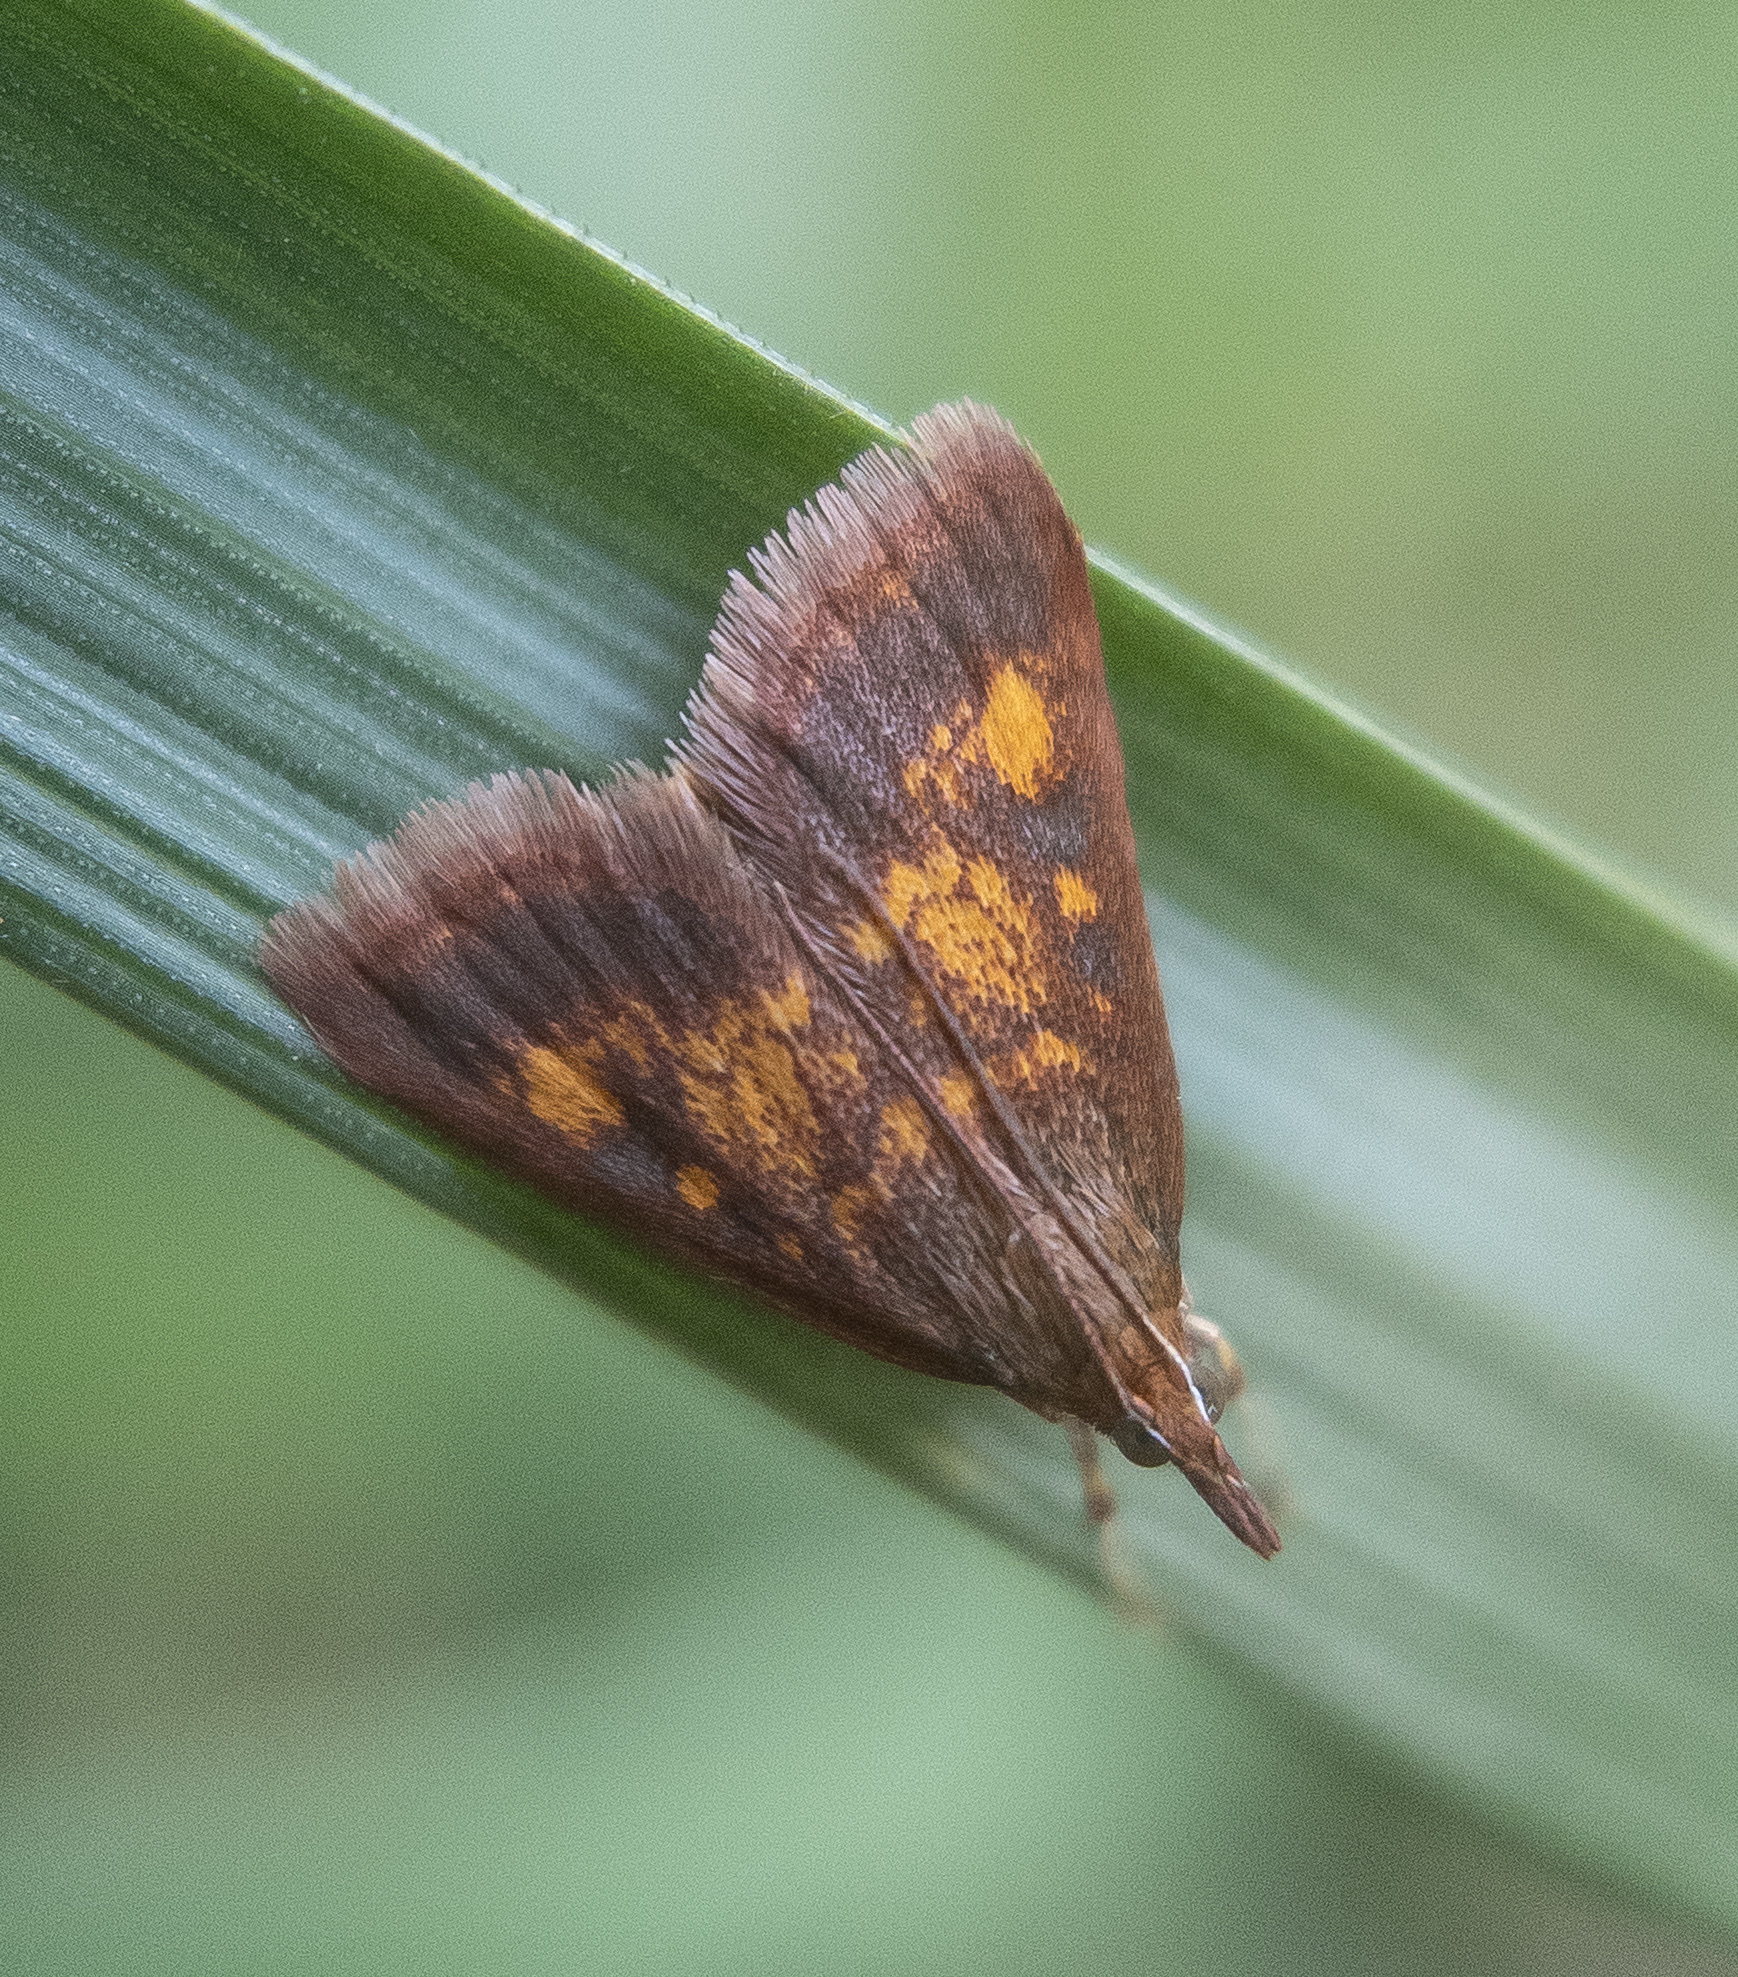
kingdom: Animalia
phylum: Arthropoda
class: Insecta
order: Lepidoptera
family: Crambidae
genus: Pyrausta
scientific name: Pyrausta acrionalis
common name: Mint-loving pyrausta moth
